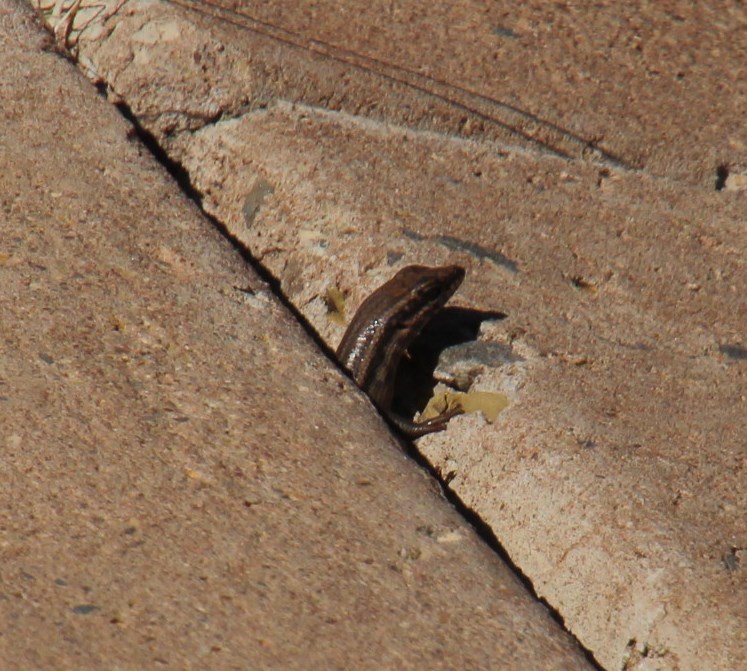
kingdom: Animalia
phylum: Chordata
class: Squamata
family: Scincidae
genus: Trachylepis
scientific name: Trachylepis sulcata
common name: Western rock skink
